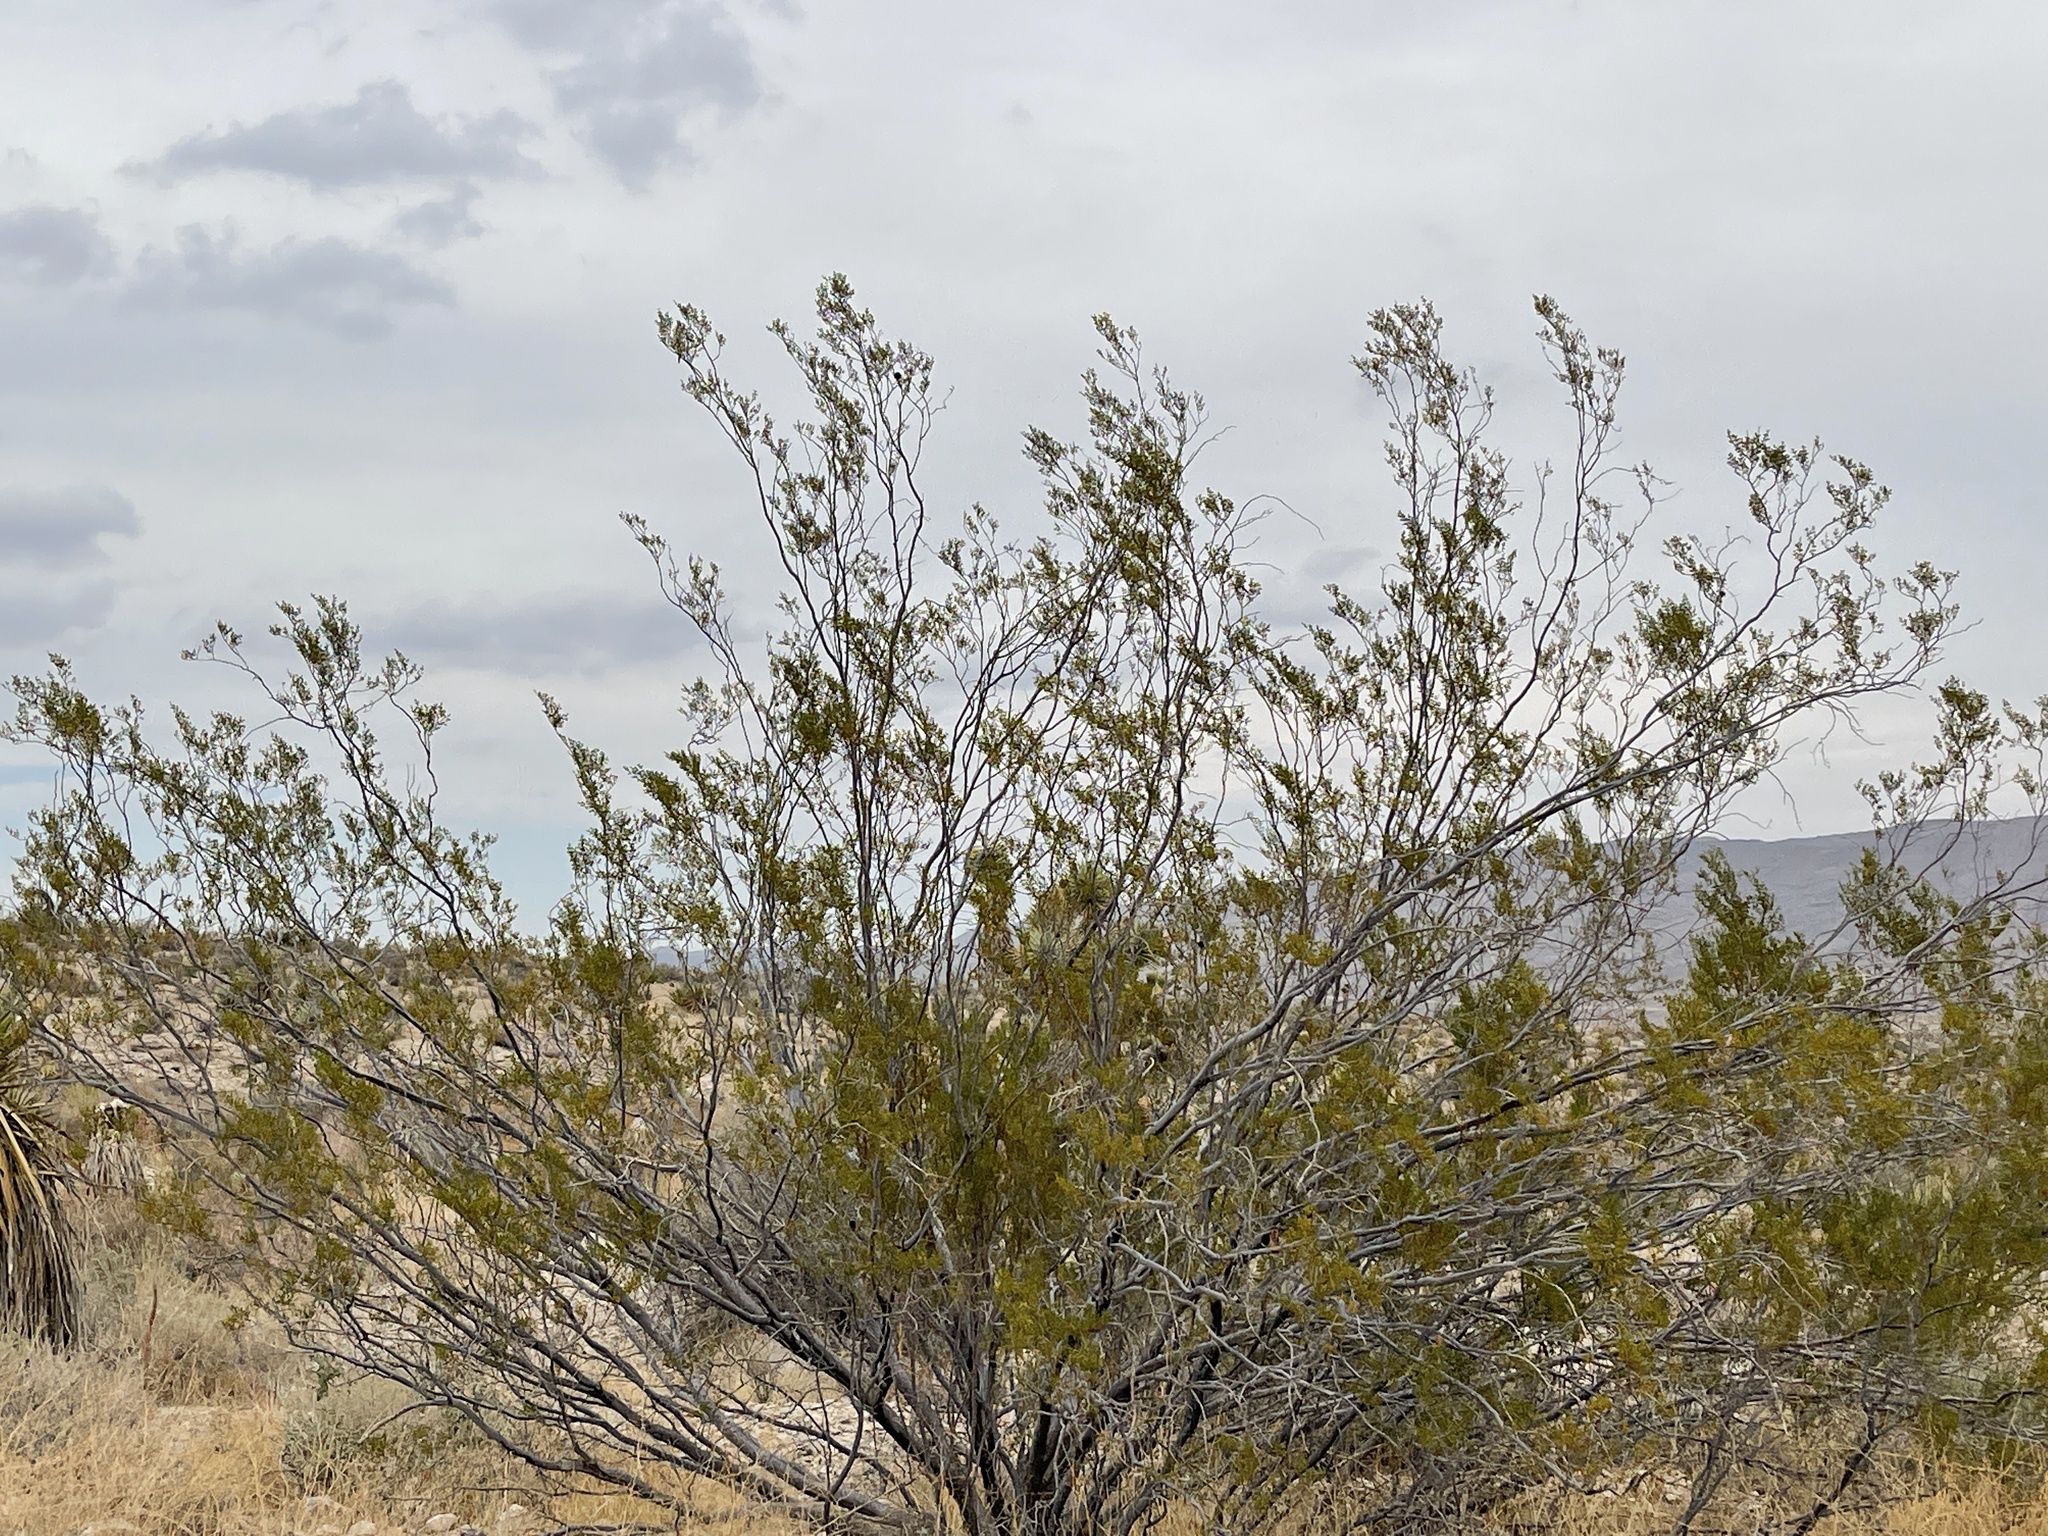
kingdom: Plantae
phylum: Tracheophyta
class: Magnoliopsida
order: Zygophyllales
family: Zygophyllaceae
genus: Larrea
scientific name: Larrea tridentata
